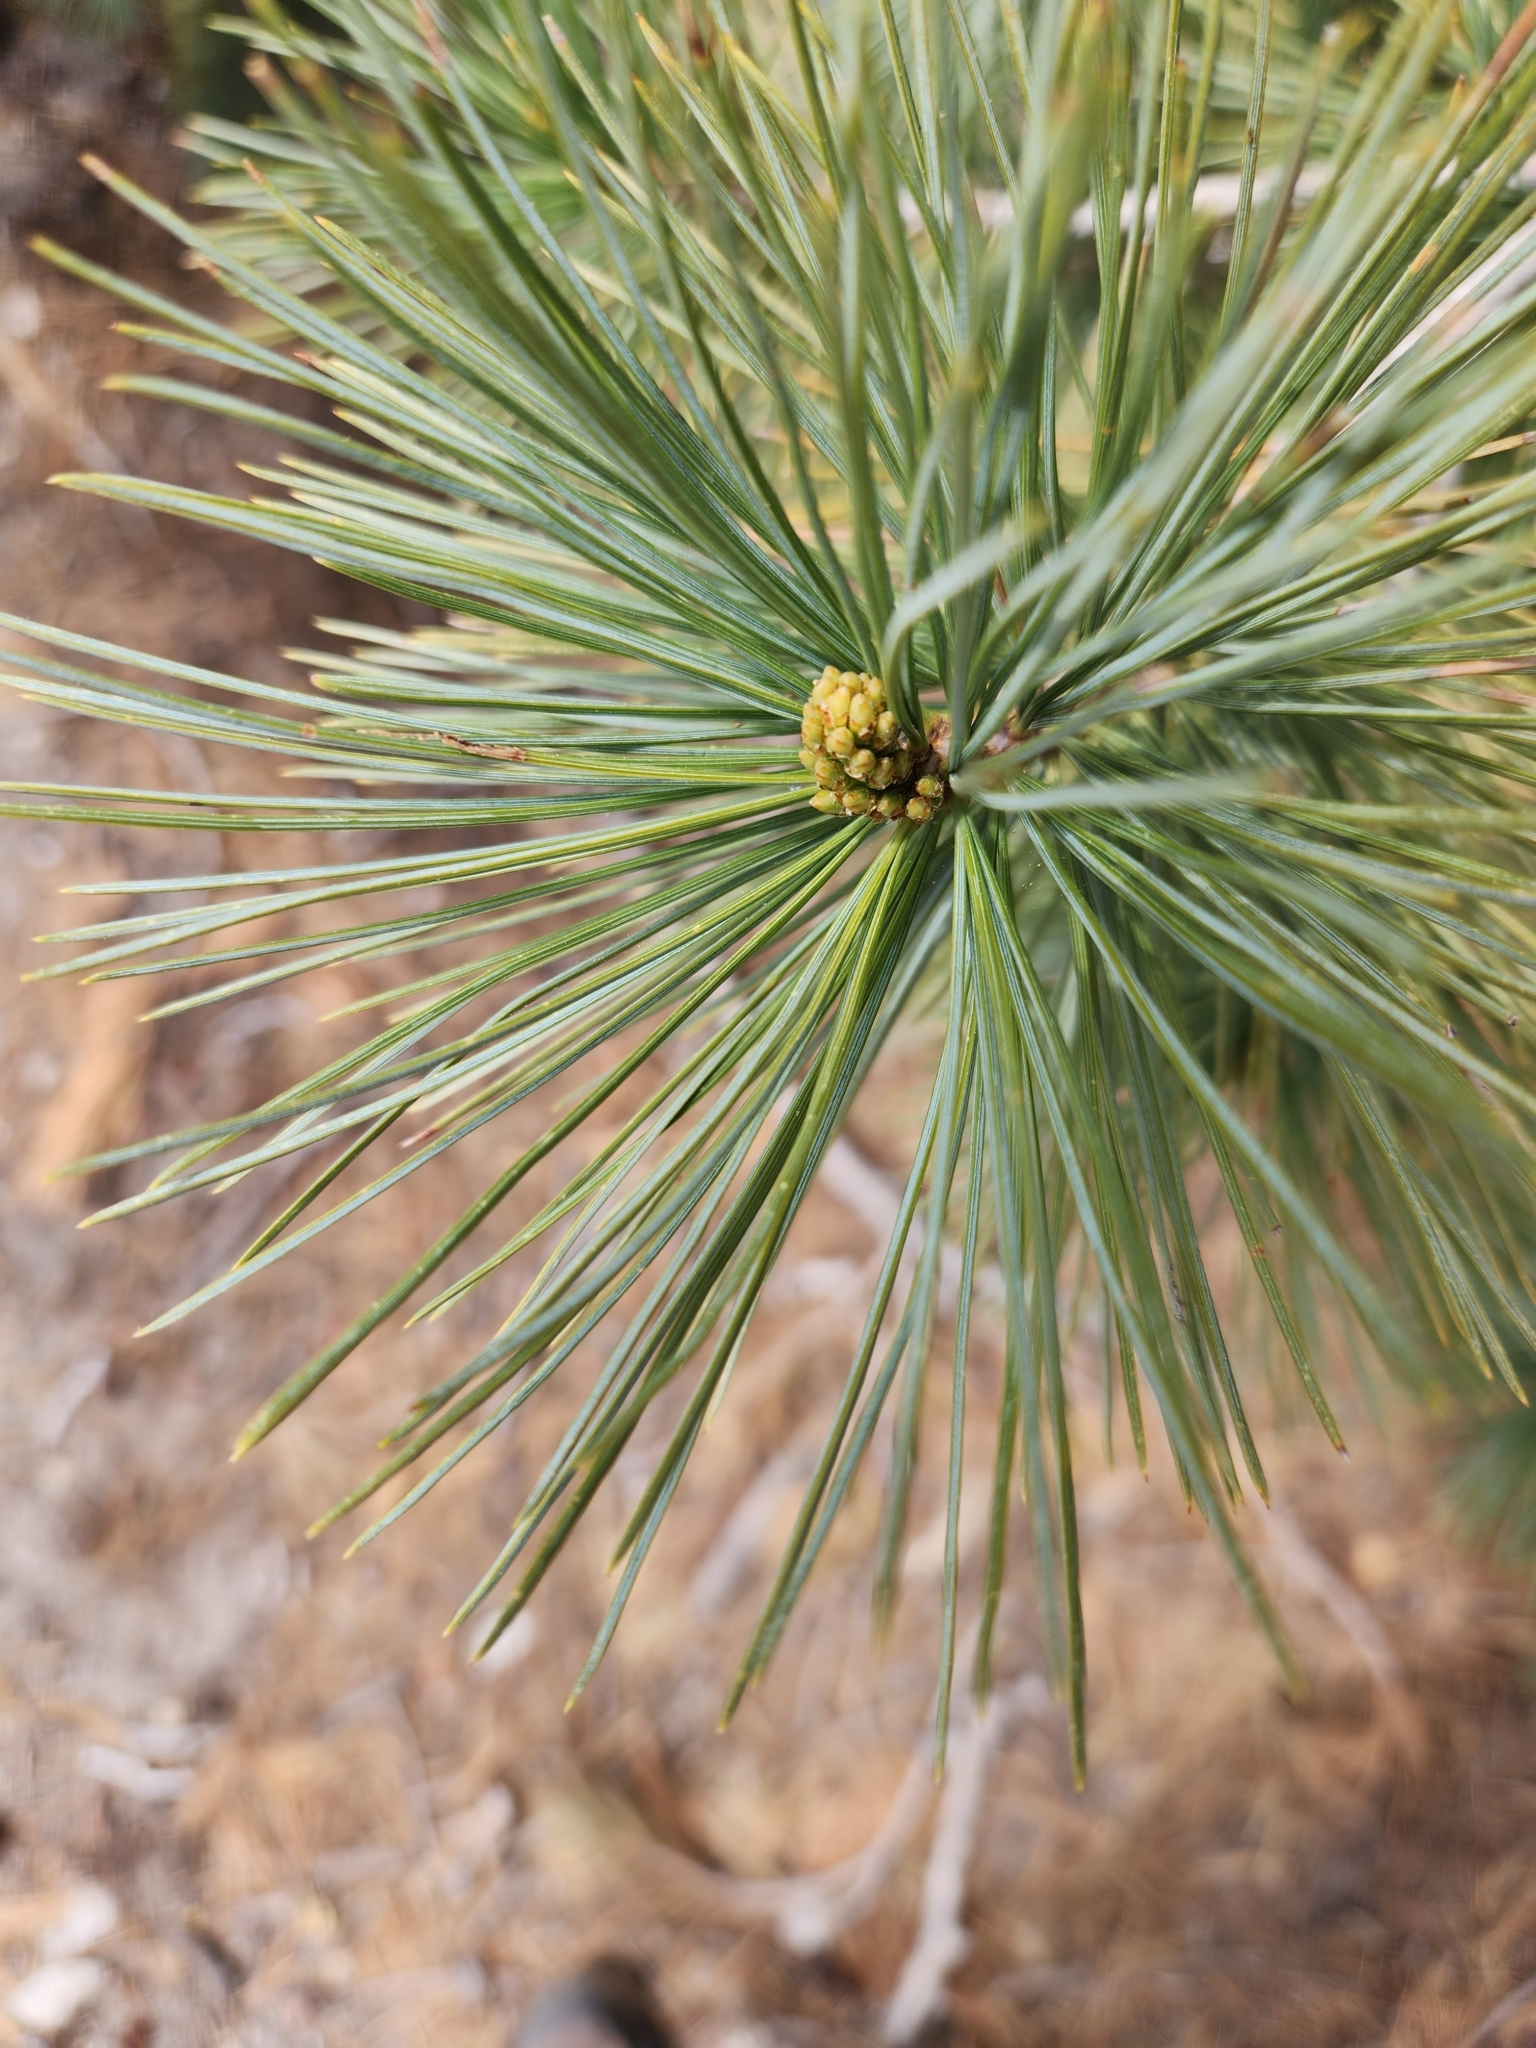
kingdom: Plantae
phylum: Tracheophyta
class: Pinopsida
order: Pinales
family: Pinaceae
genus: Pinus
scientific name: Pinus lambertiana
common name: Sugar pine
